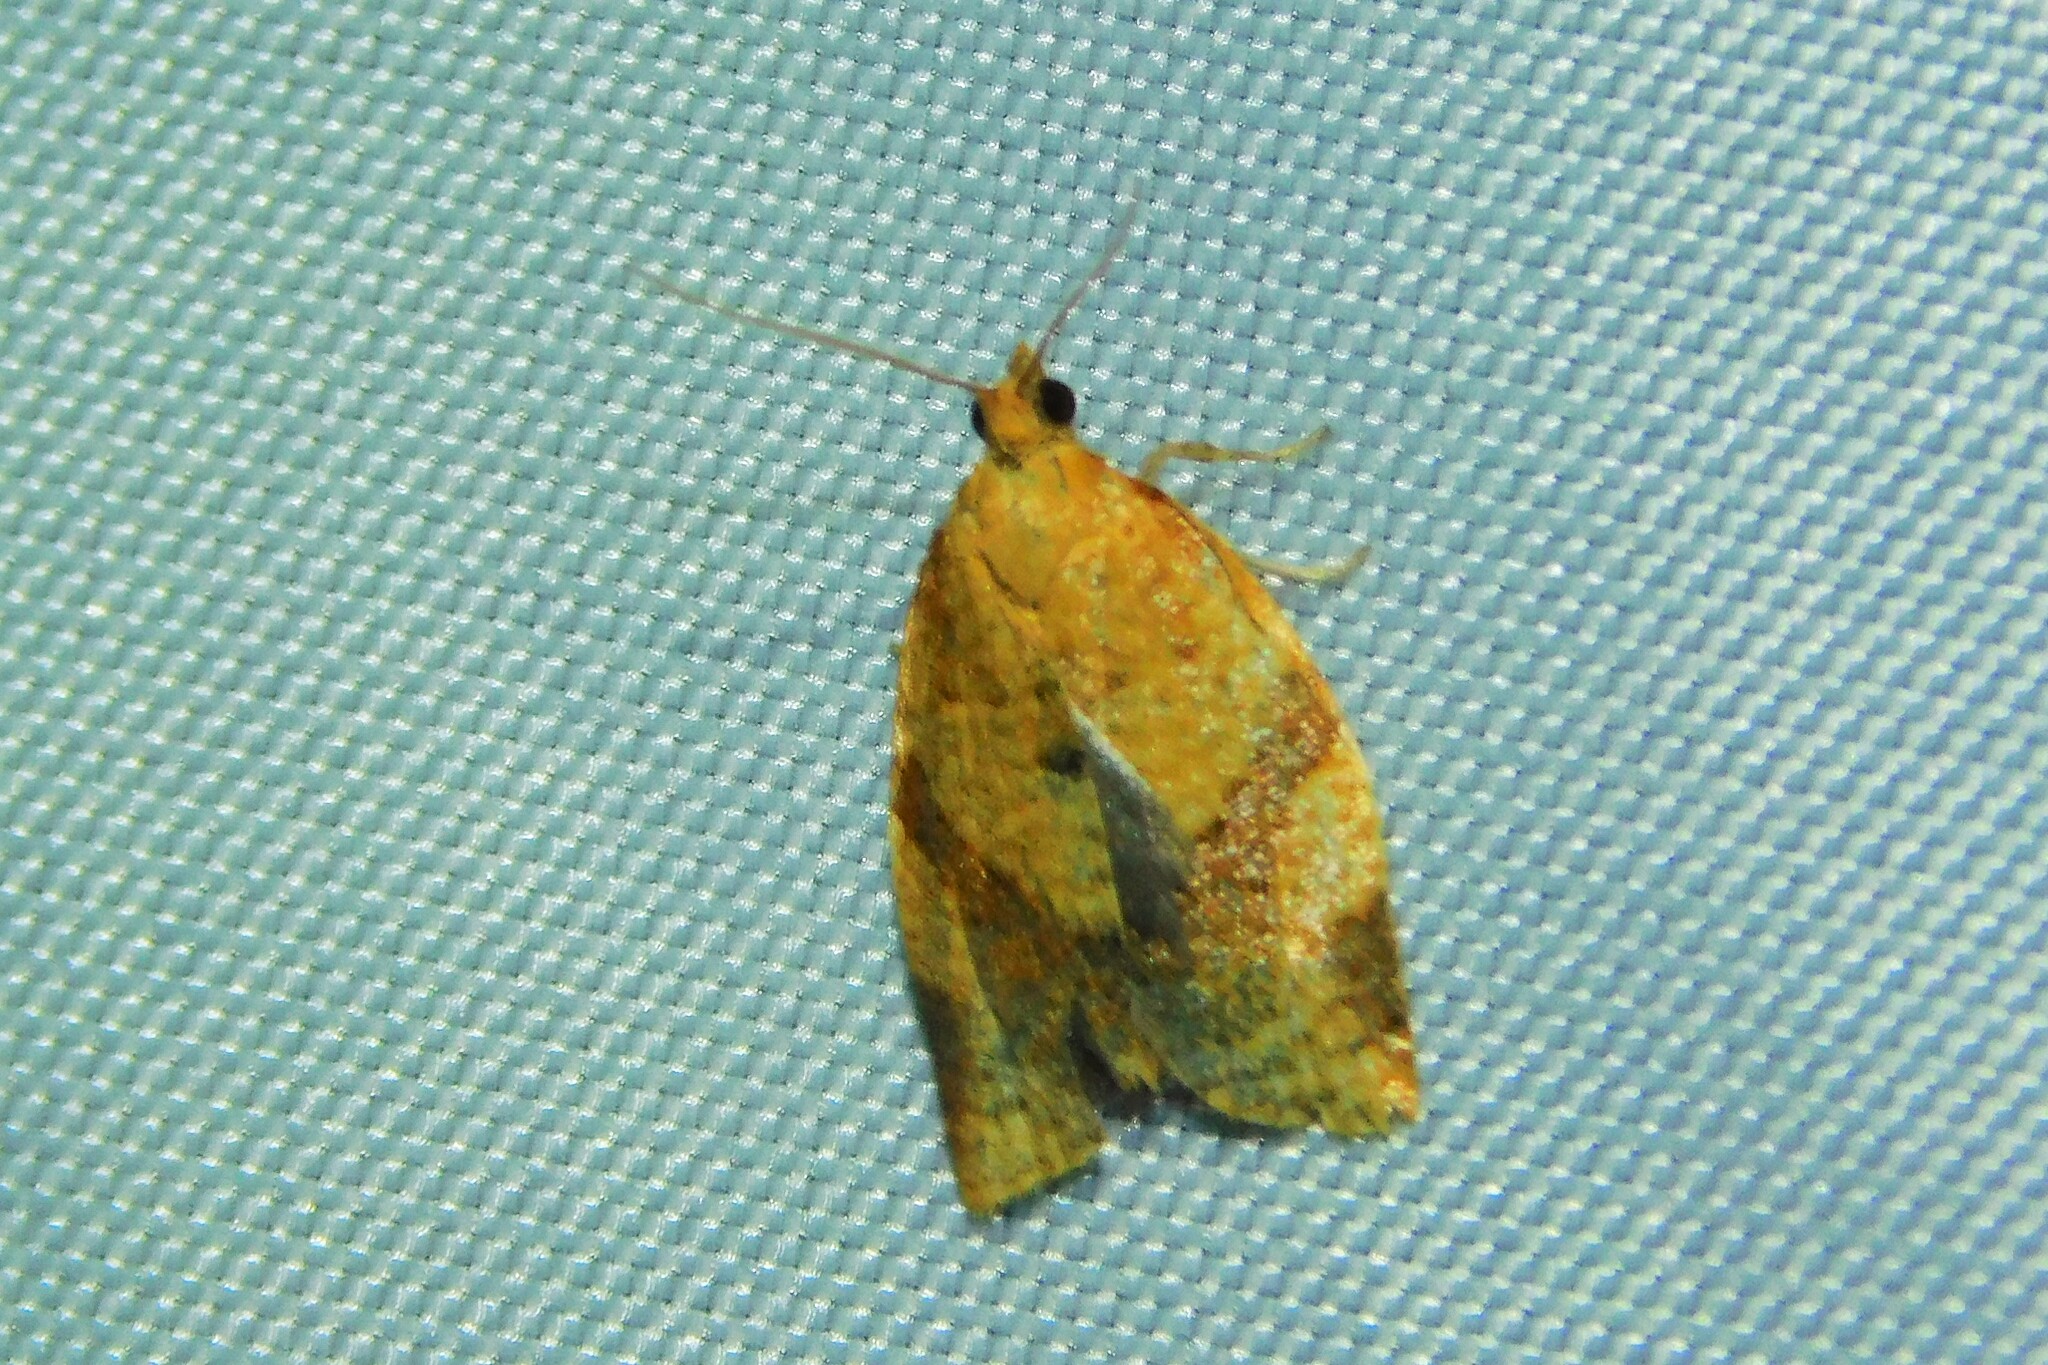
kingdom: Animalia
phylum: Arthropoda
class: Insecta
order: Lepidoptera
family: Tortricidae
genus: Clepsis
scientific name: Clepsis consimilana
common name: Privet tortrix
